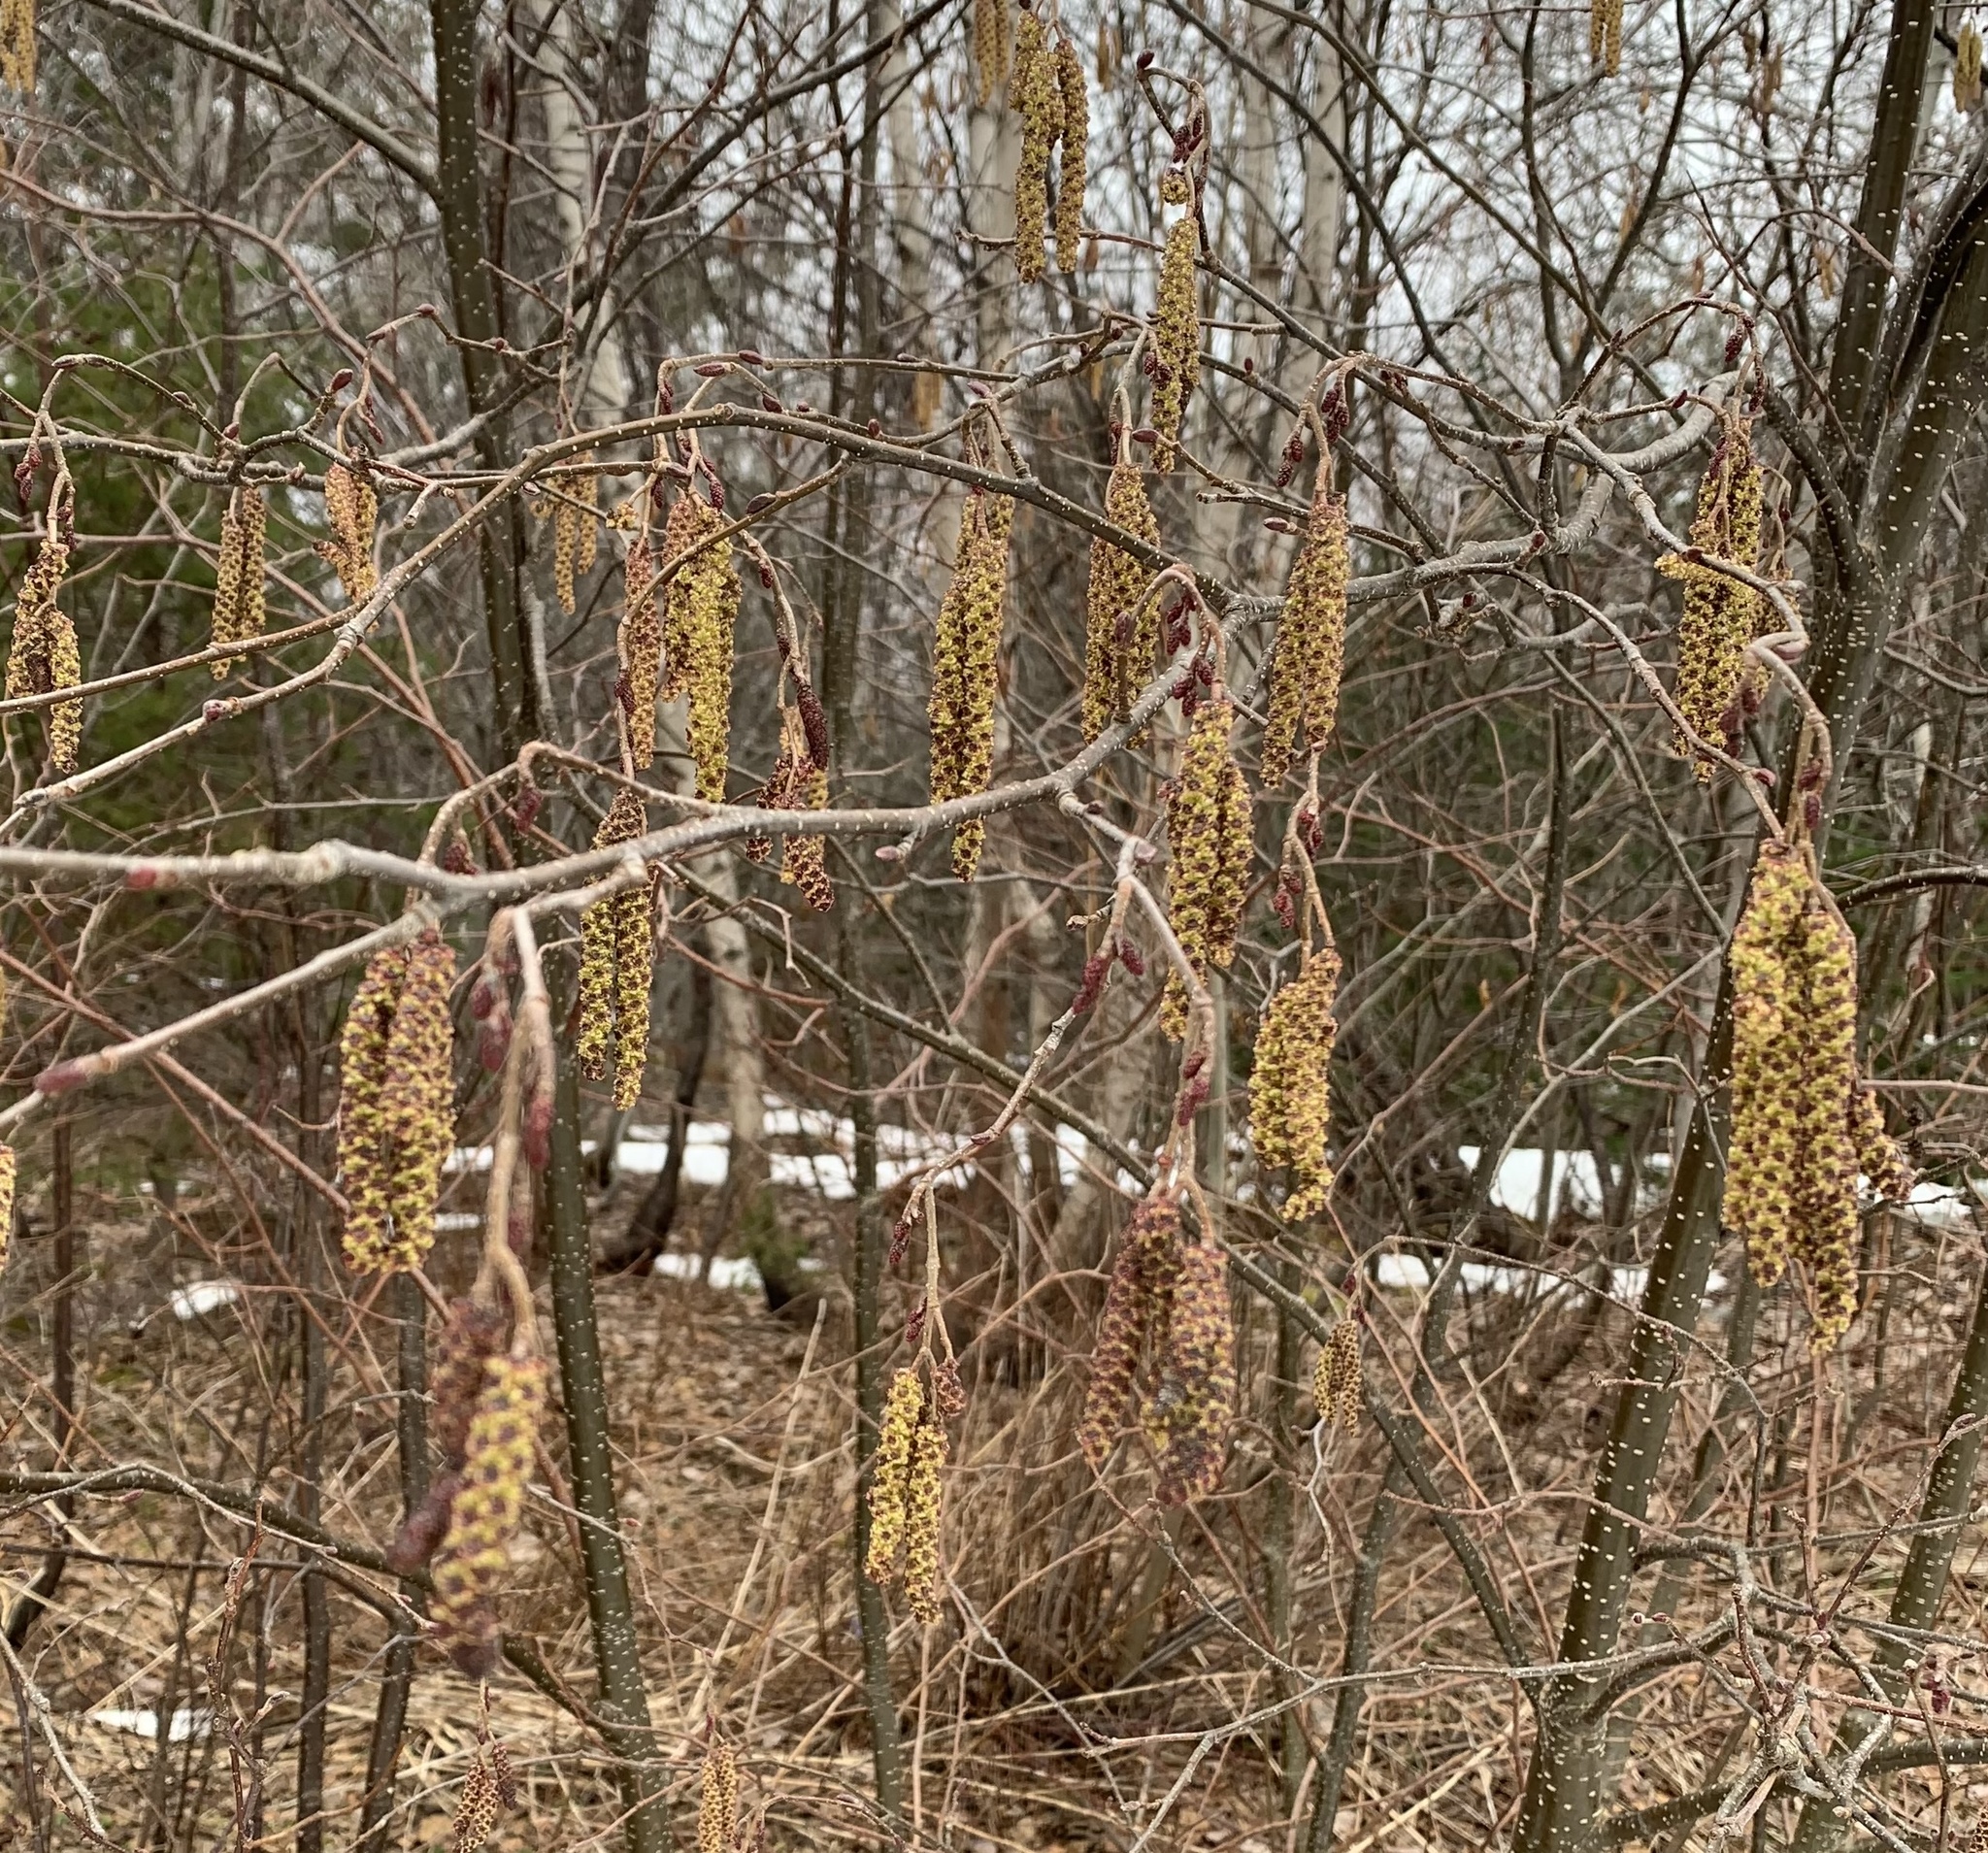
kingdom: Plantae
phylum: Tracheophyta
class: Magnoliopsida
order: Fagales
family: Betulaceae
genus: Alnus
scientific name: Alnus incana
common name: Grey alder
